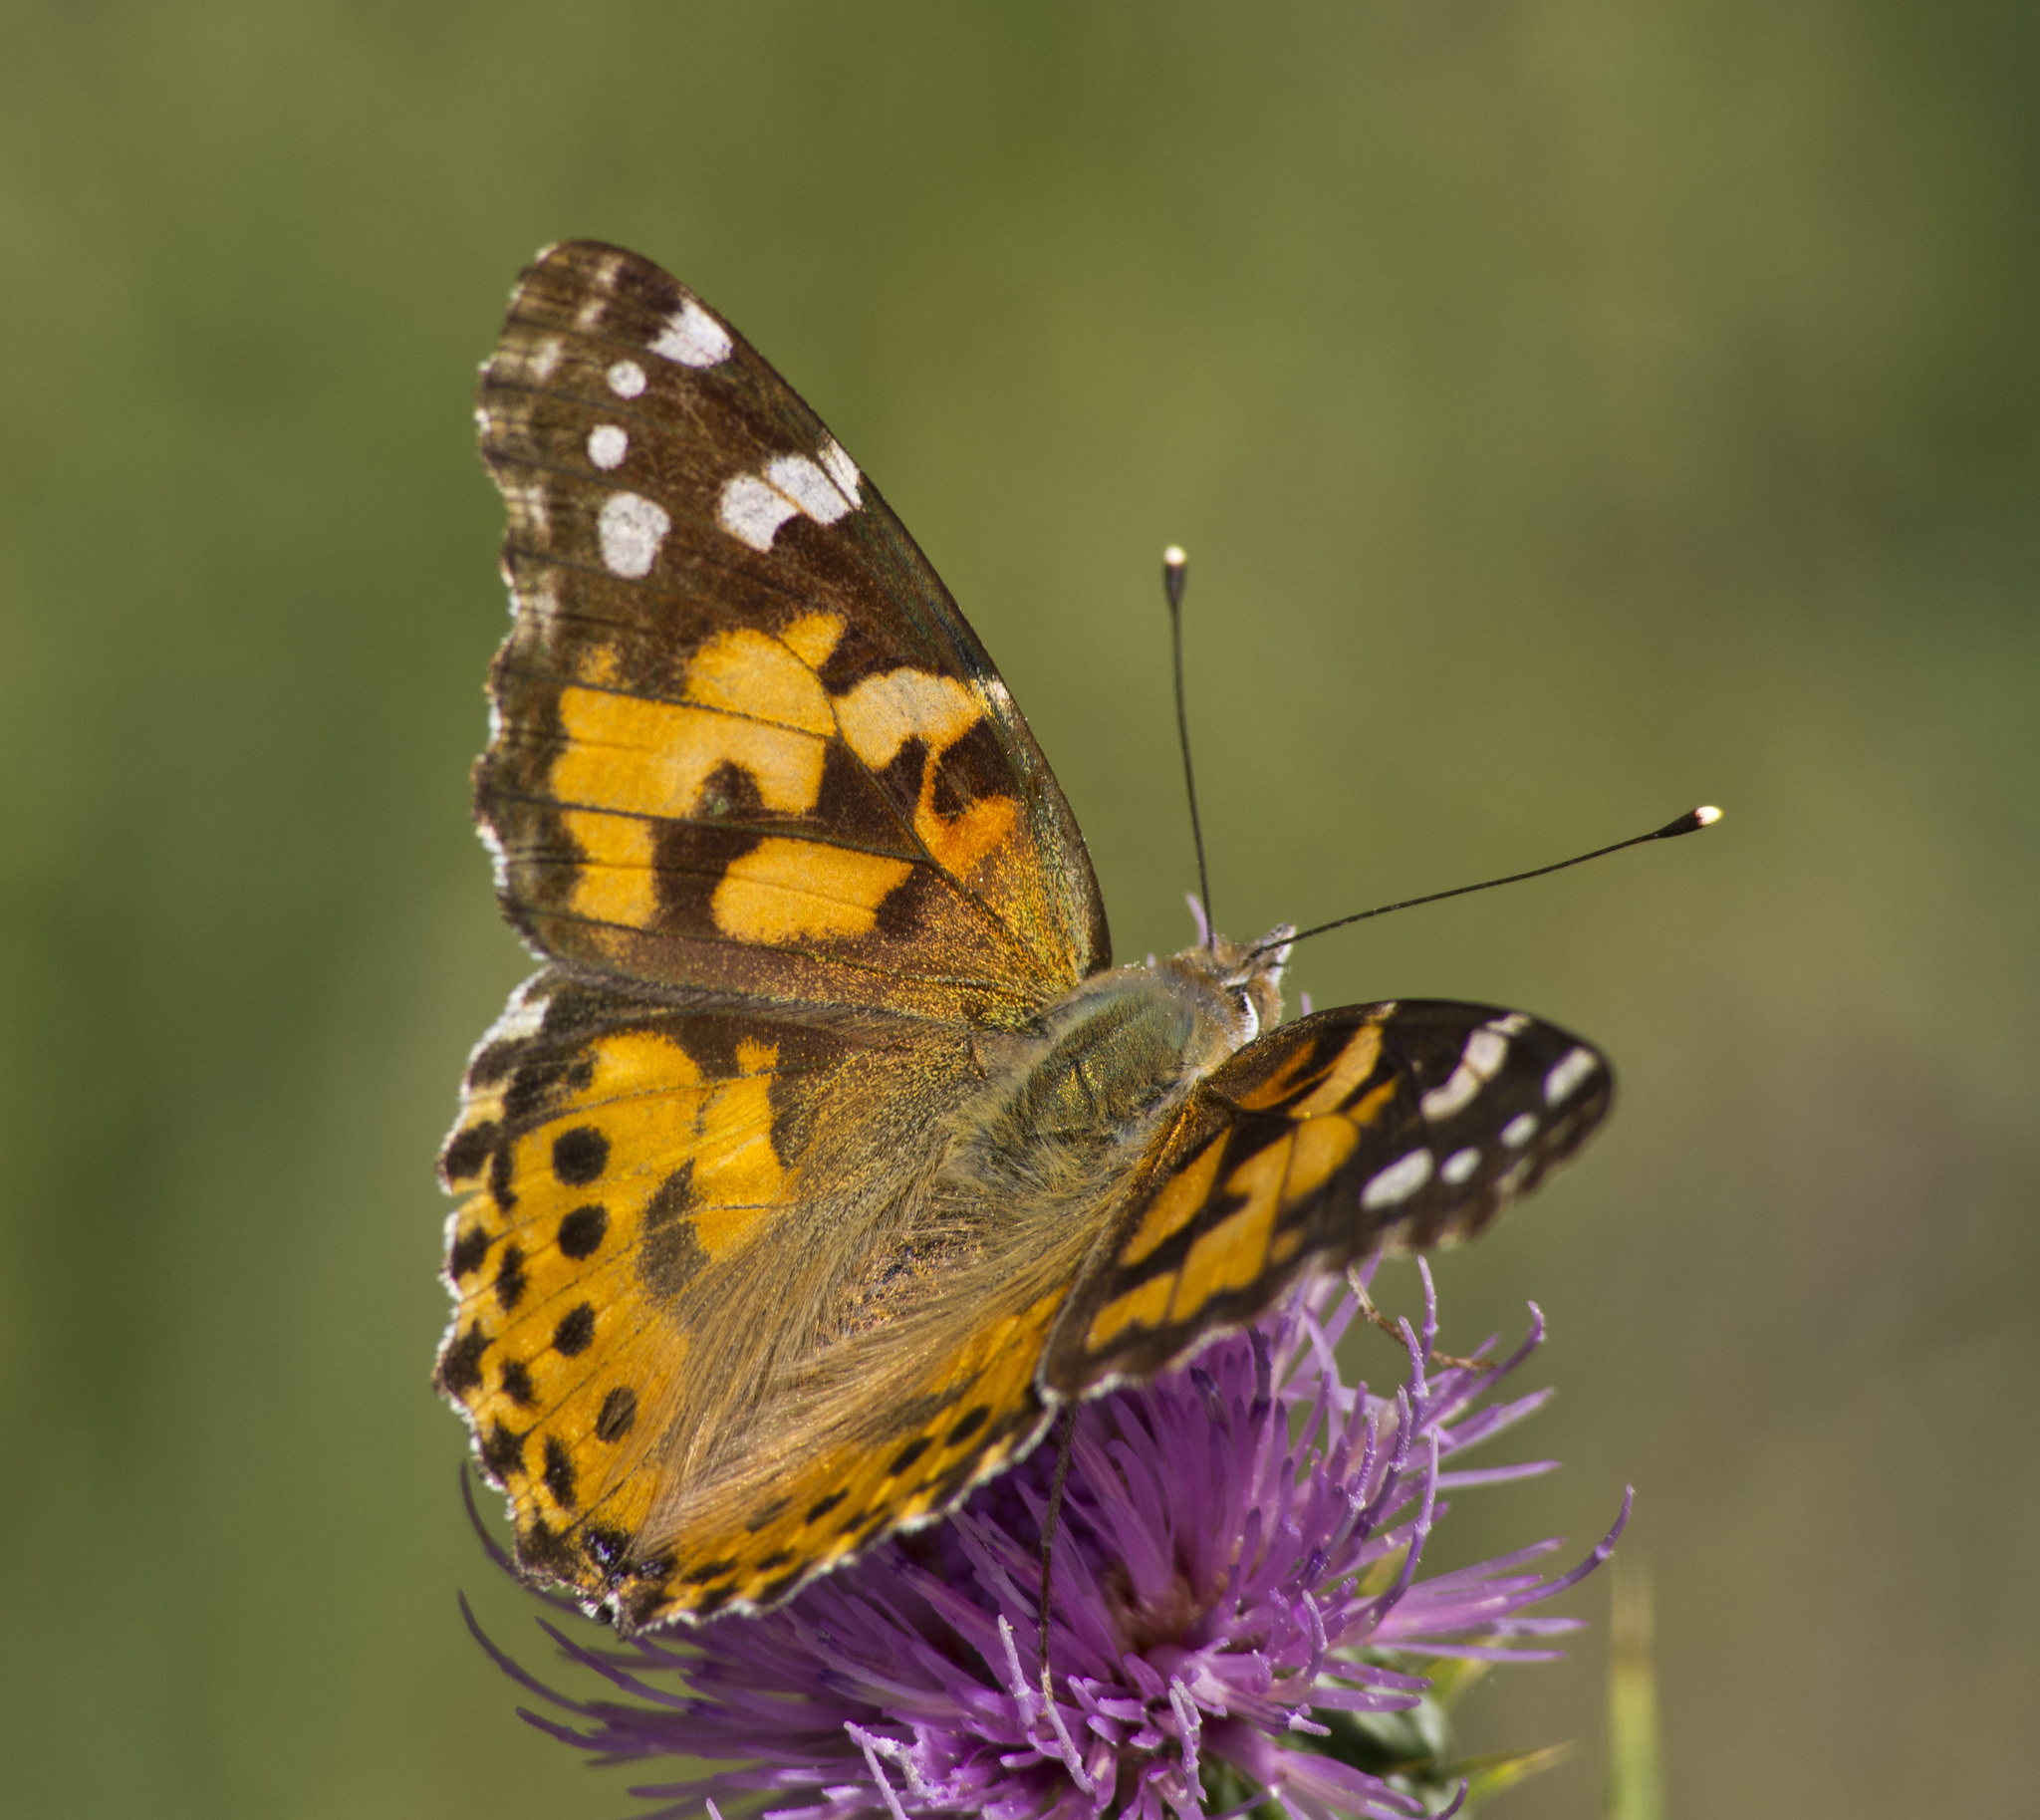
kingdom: Animalia
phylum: Arthropoda
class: Insecta
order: Lepidoptera
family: Nymphalidae
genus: Vanessa
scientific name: Vanessa cardui
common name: Painted lady
